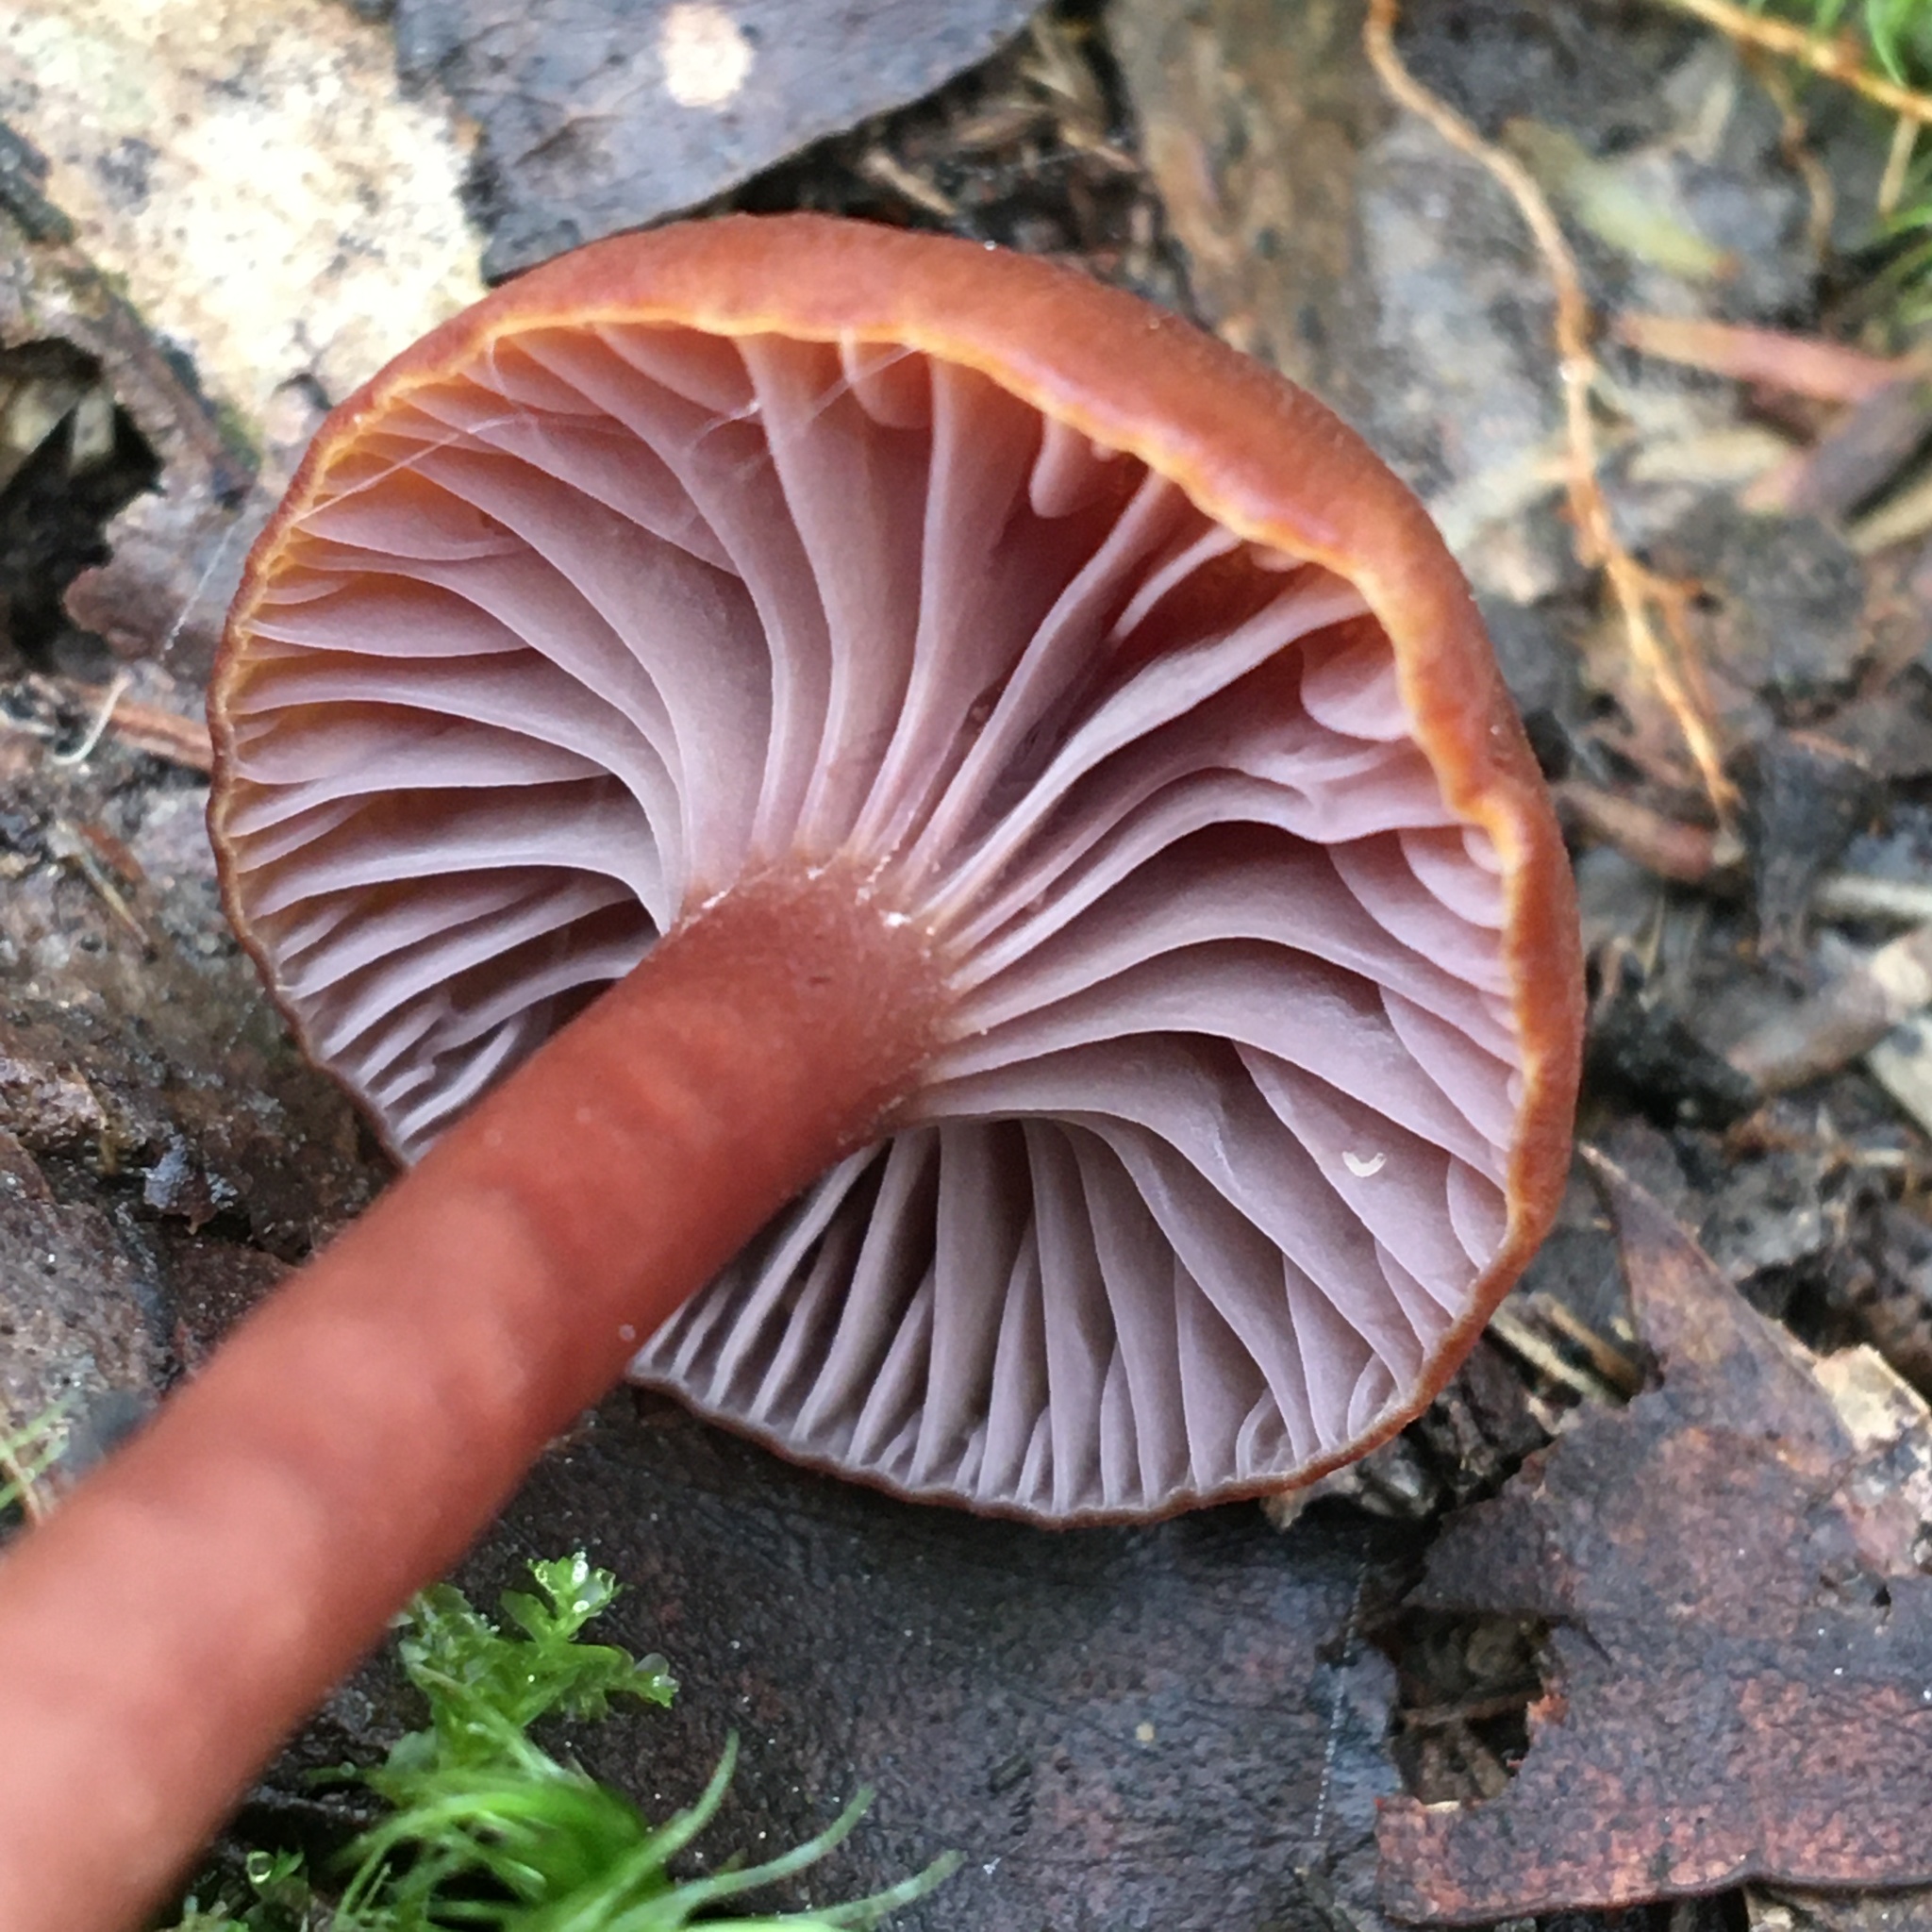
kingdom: Fungi
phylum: Basidiomycota
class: Agaricomycetes
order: Agaricales
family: Hygrophoraceae
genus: Hygrocybe
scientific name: Hygrocybe lilaceolamellata
